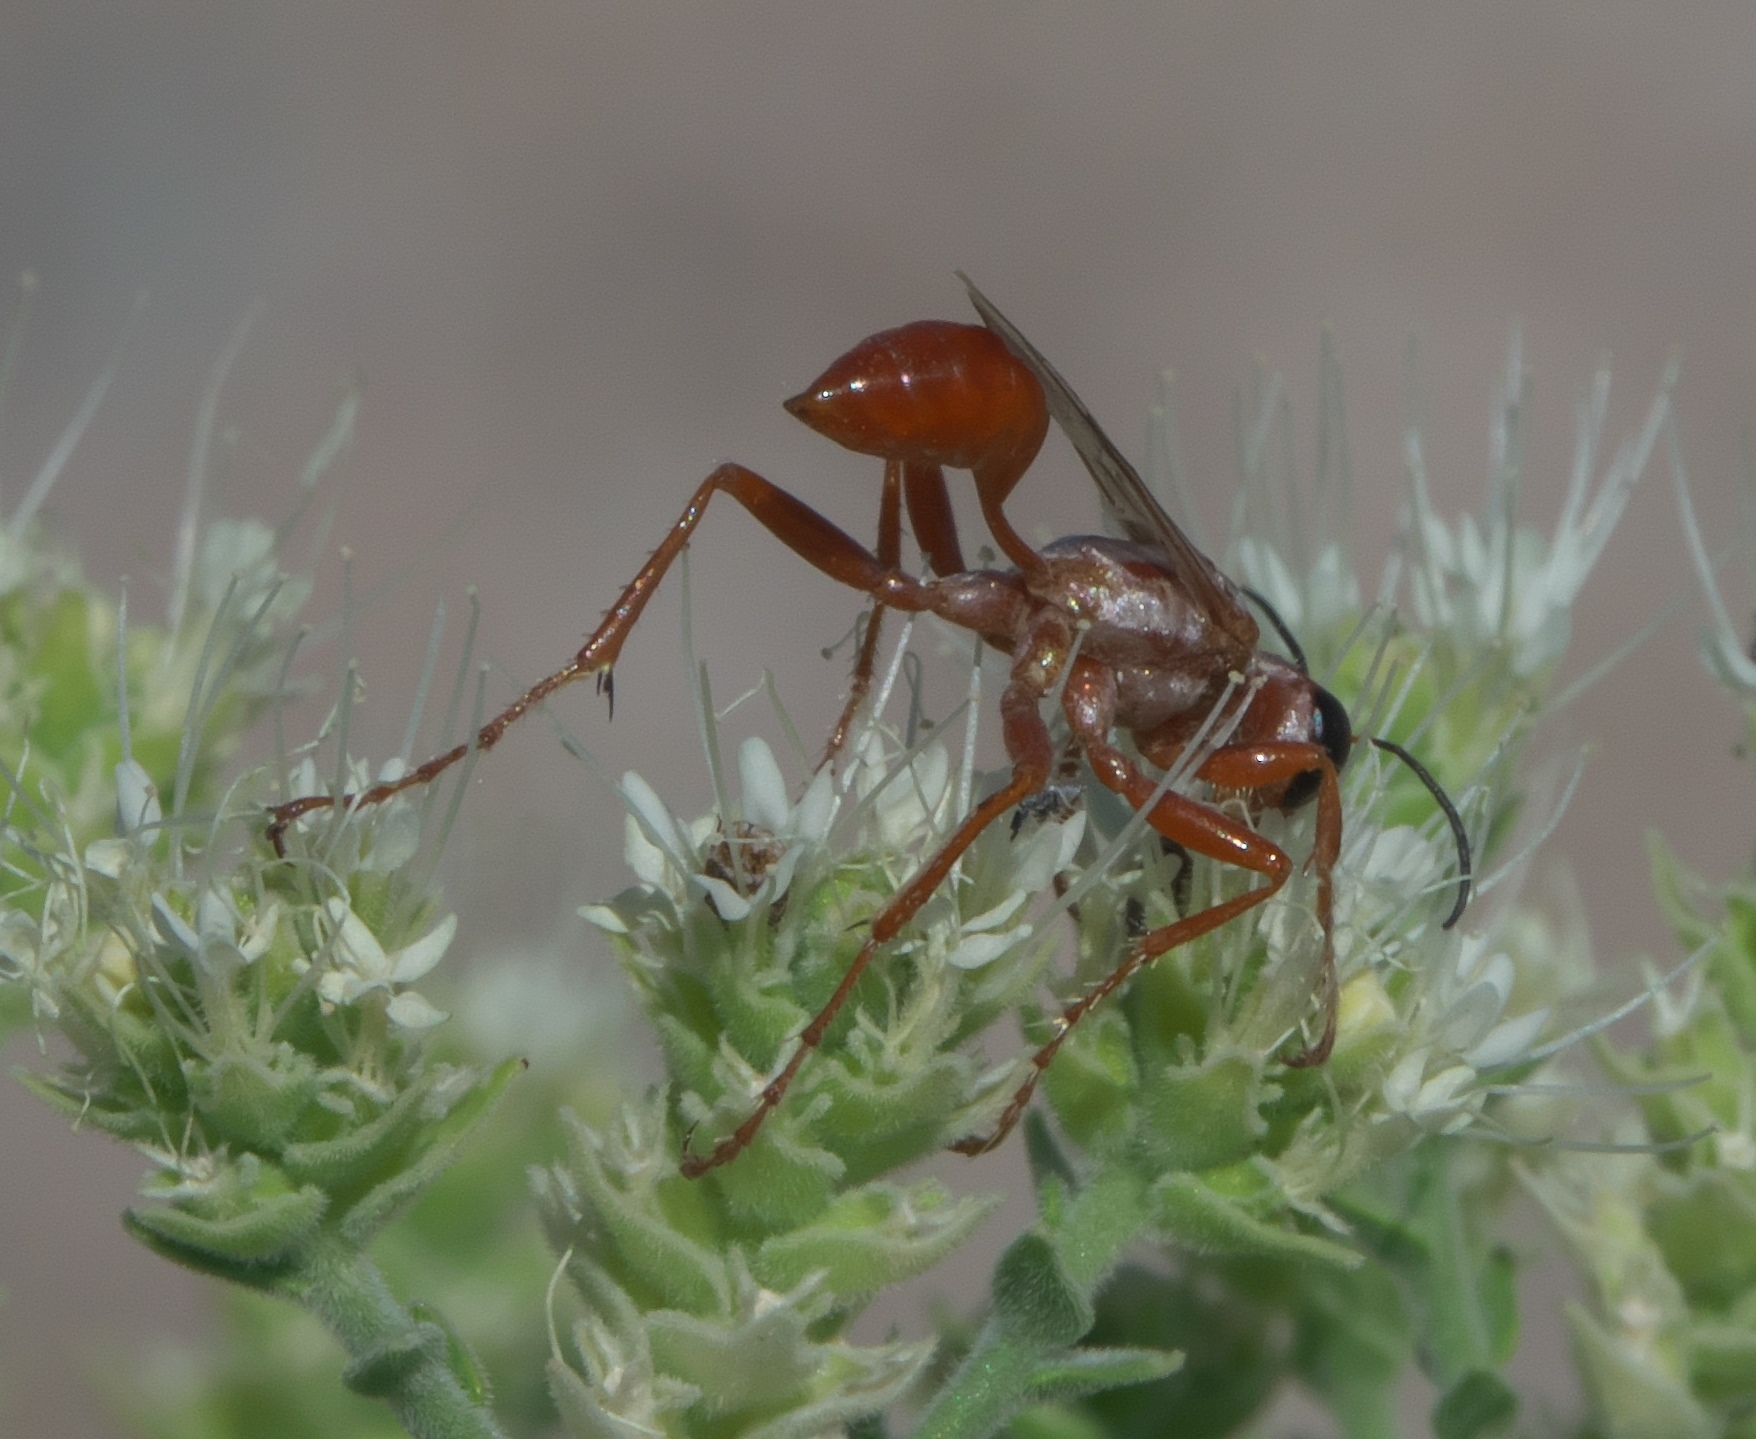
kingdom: Animalia
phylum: Arthropoda
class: Insecta
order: Hymenoptera
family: Sphecidae
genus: Prionyx
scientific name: Prionyx foxi
